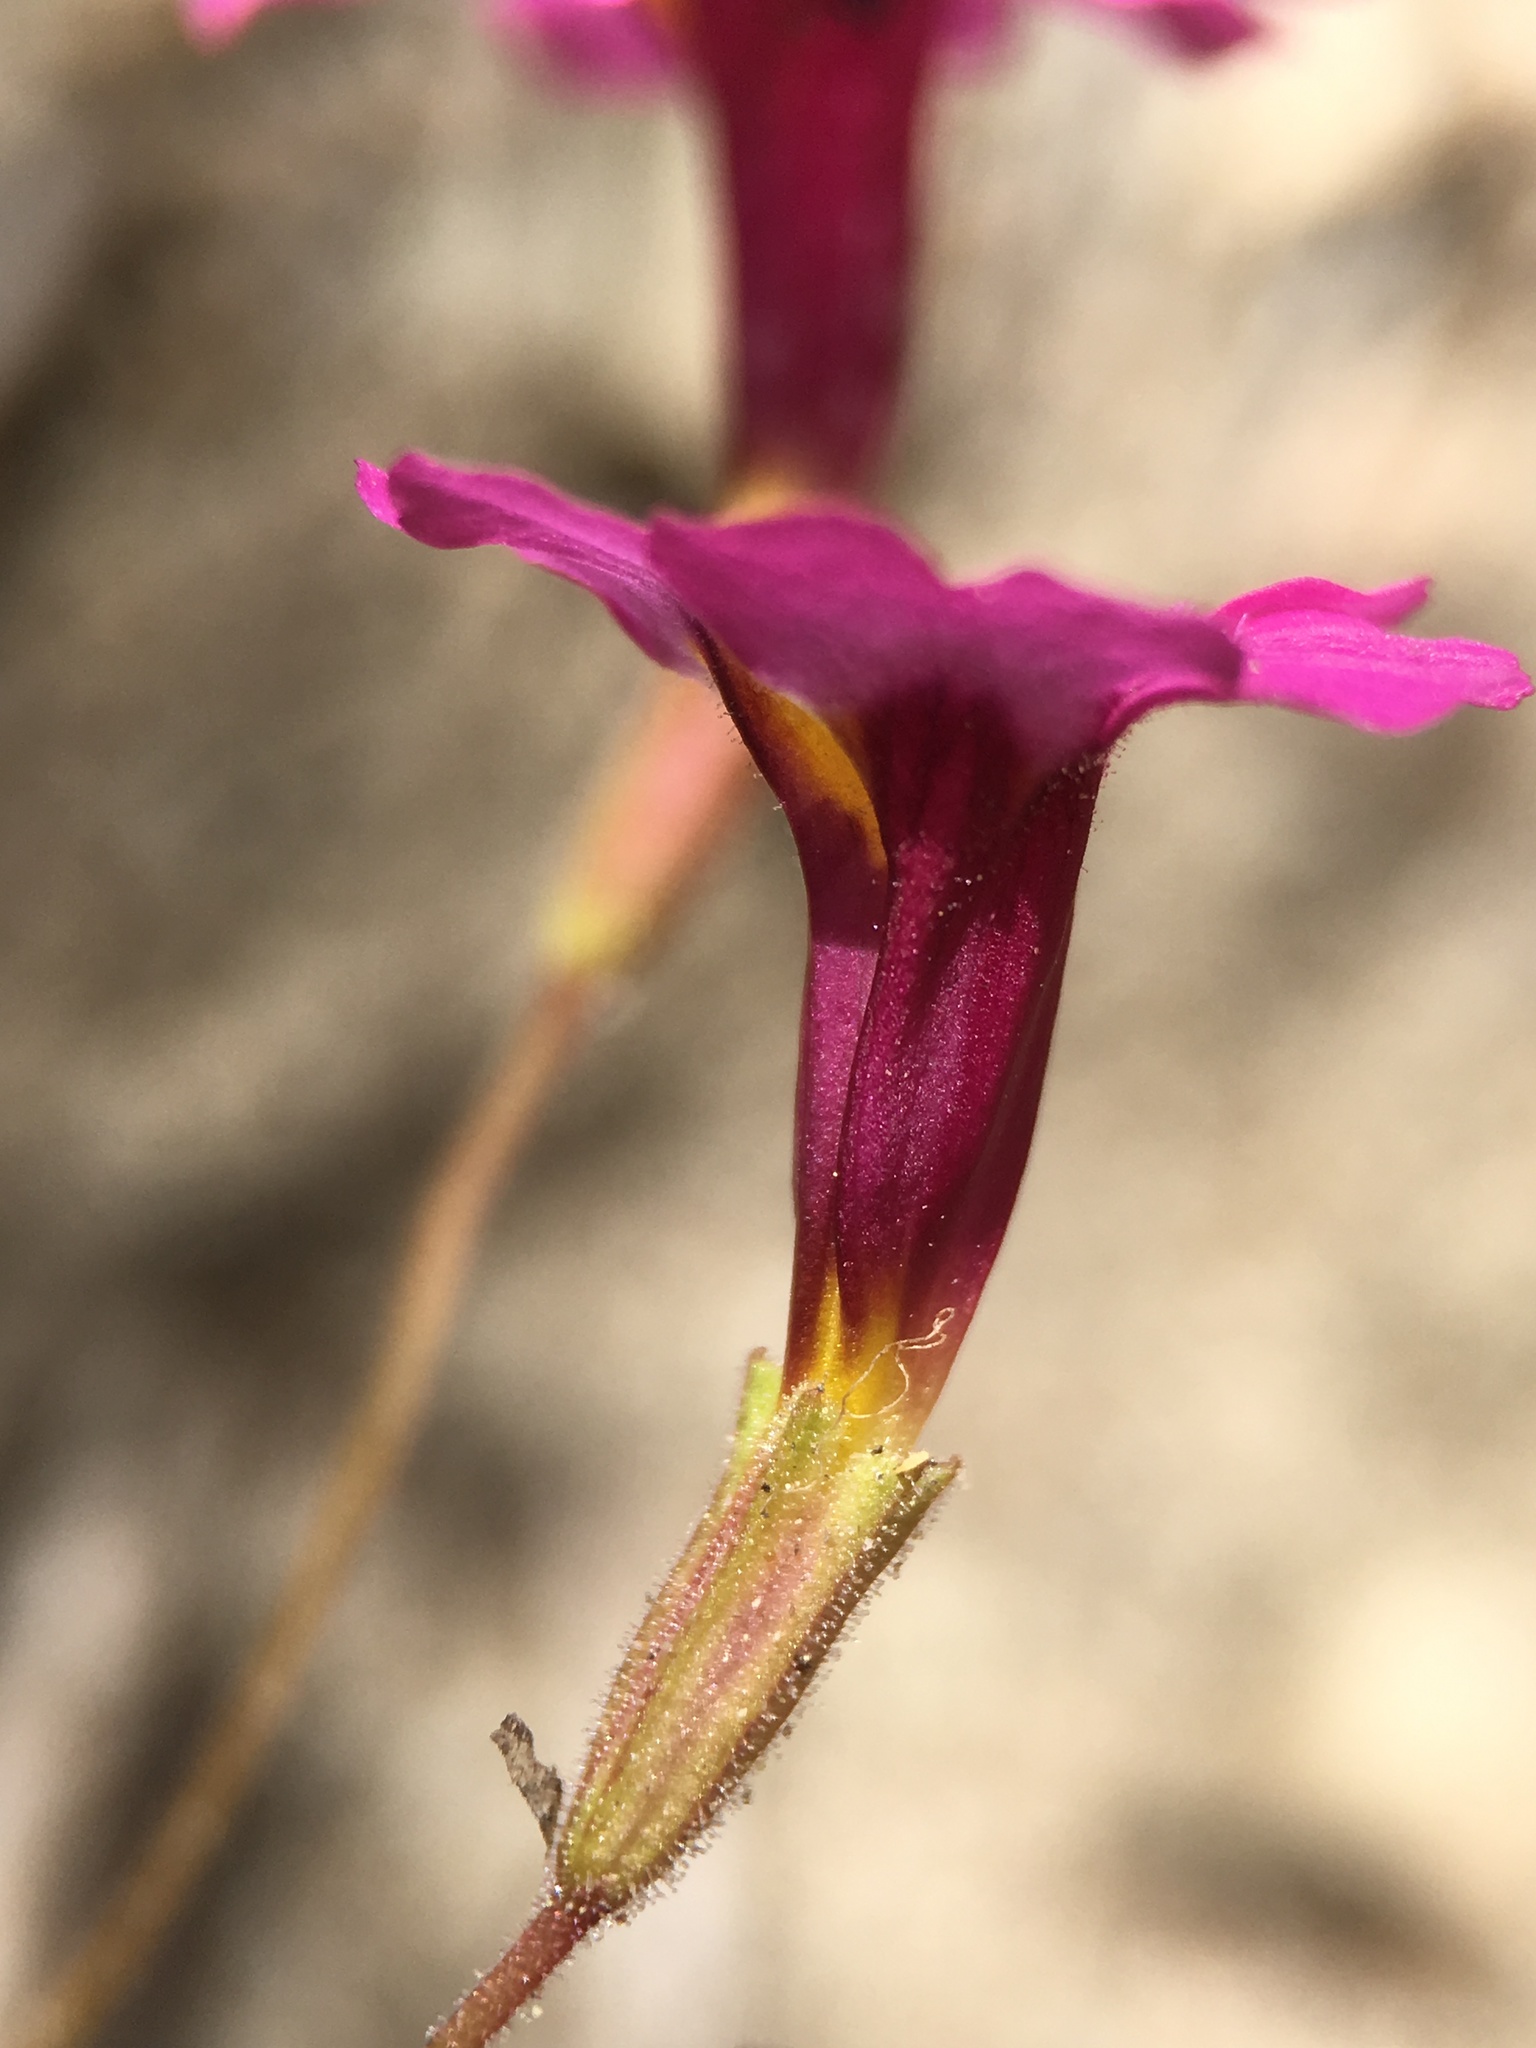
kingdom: Plantae
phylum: Tracheophyta
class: Magnoliopsida
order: Lamiales
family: Phrymaceae
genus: Erythranthe
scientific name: Erythranthe discolor
